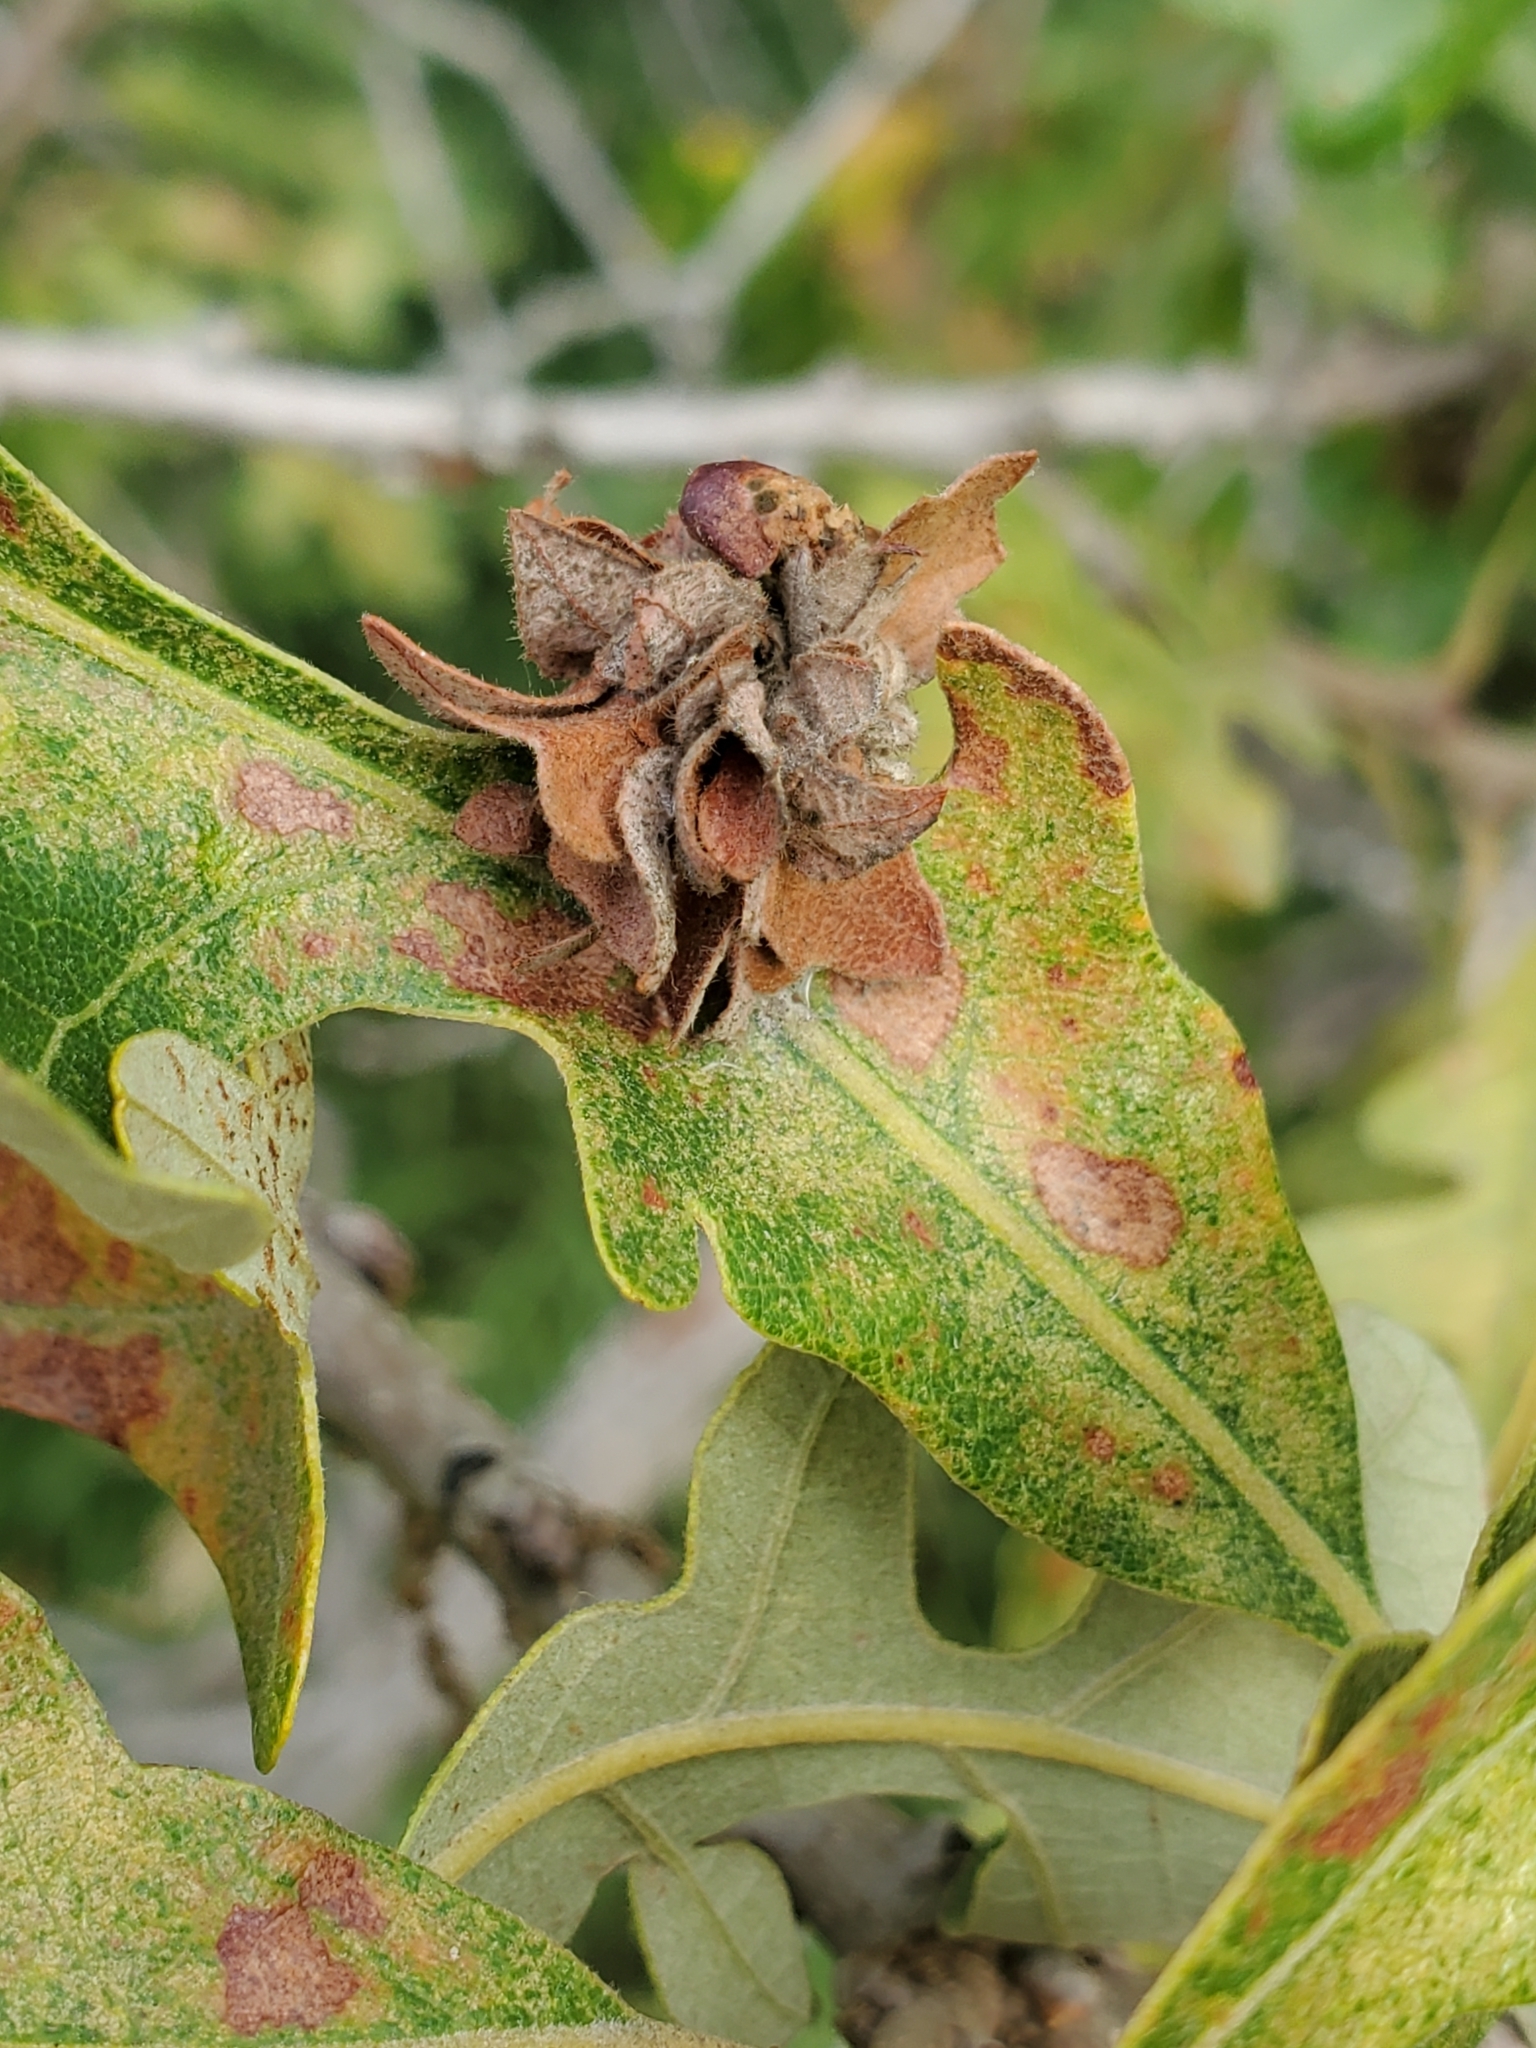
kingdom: Animalia
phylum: Arthropoda
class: Insecta
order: Hymenoptera
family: Cynipidae
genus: Andricus
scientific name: Andricus
